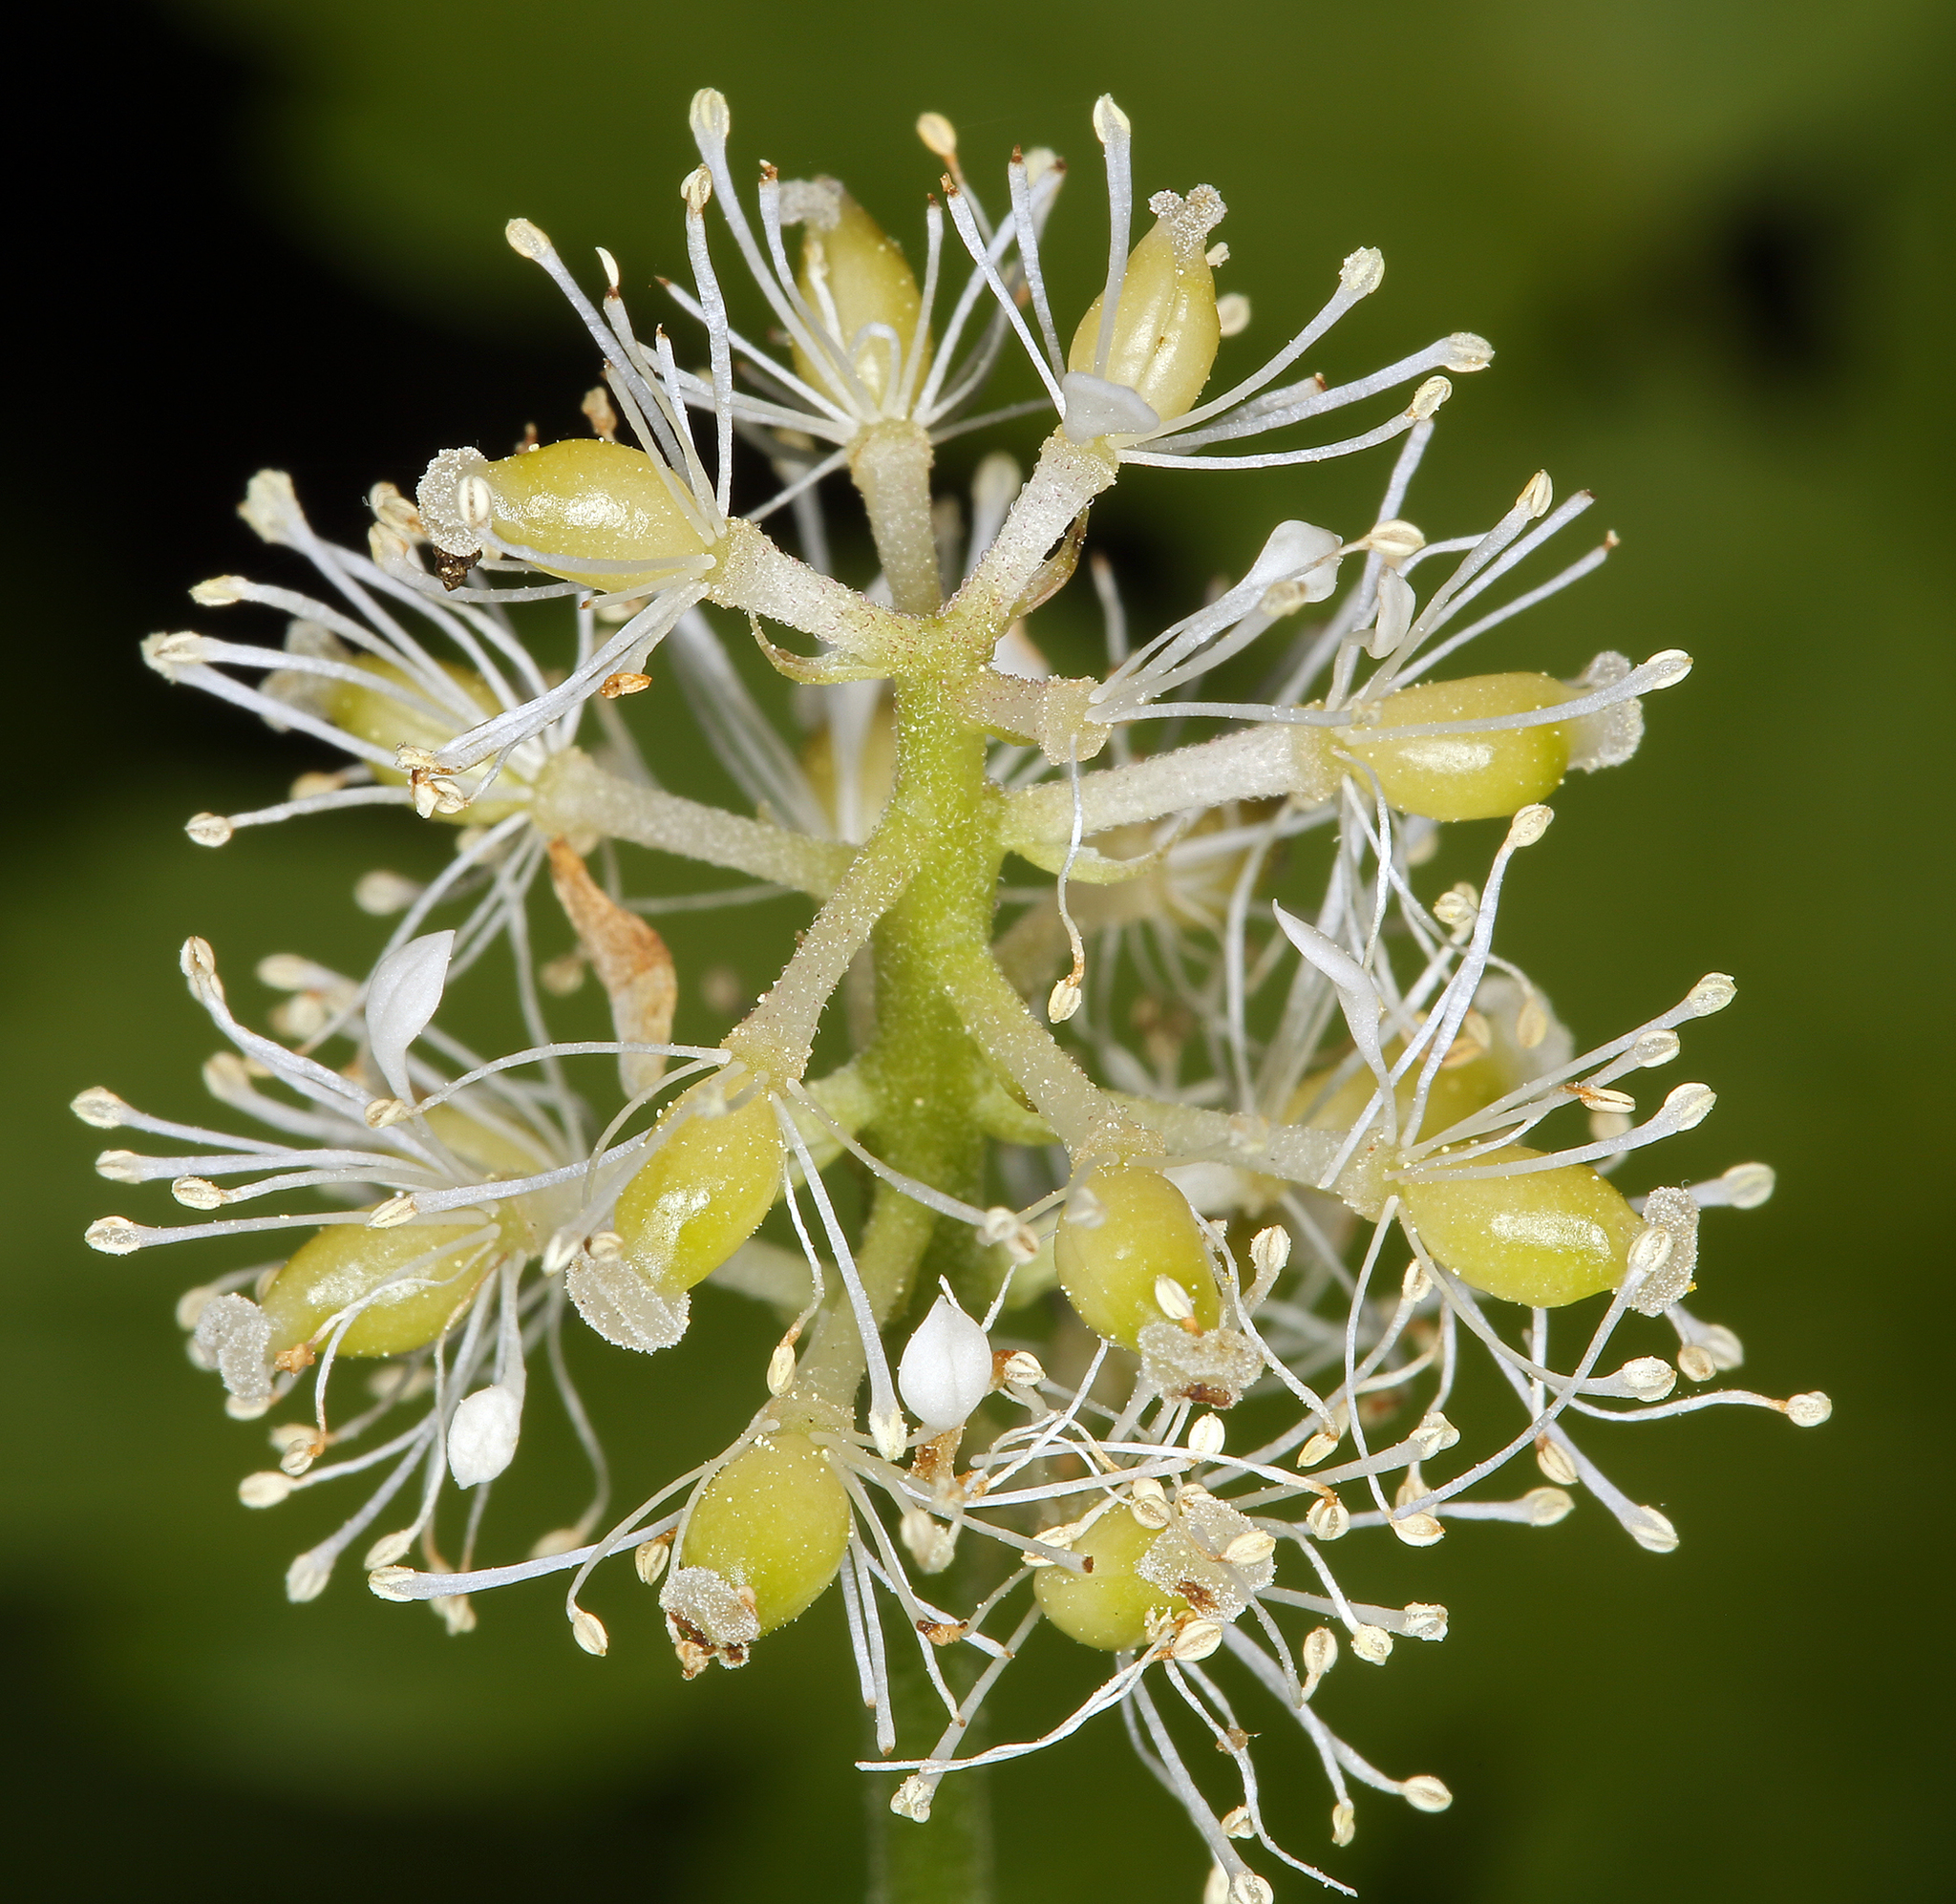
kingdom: Plantae
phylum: Tracheophyta
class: Magnoliopsida
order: Ranunculales
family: Ranunculaceae
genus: Actaea
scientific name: Actaea rubra
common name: Red baneberry
